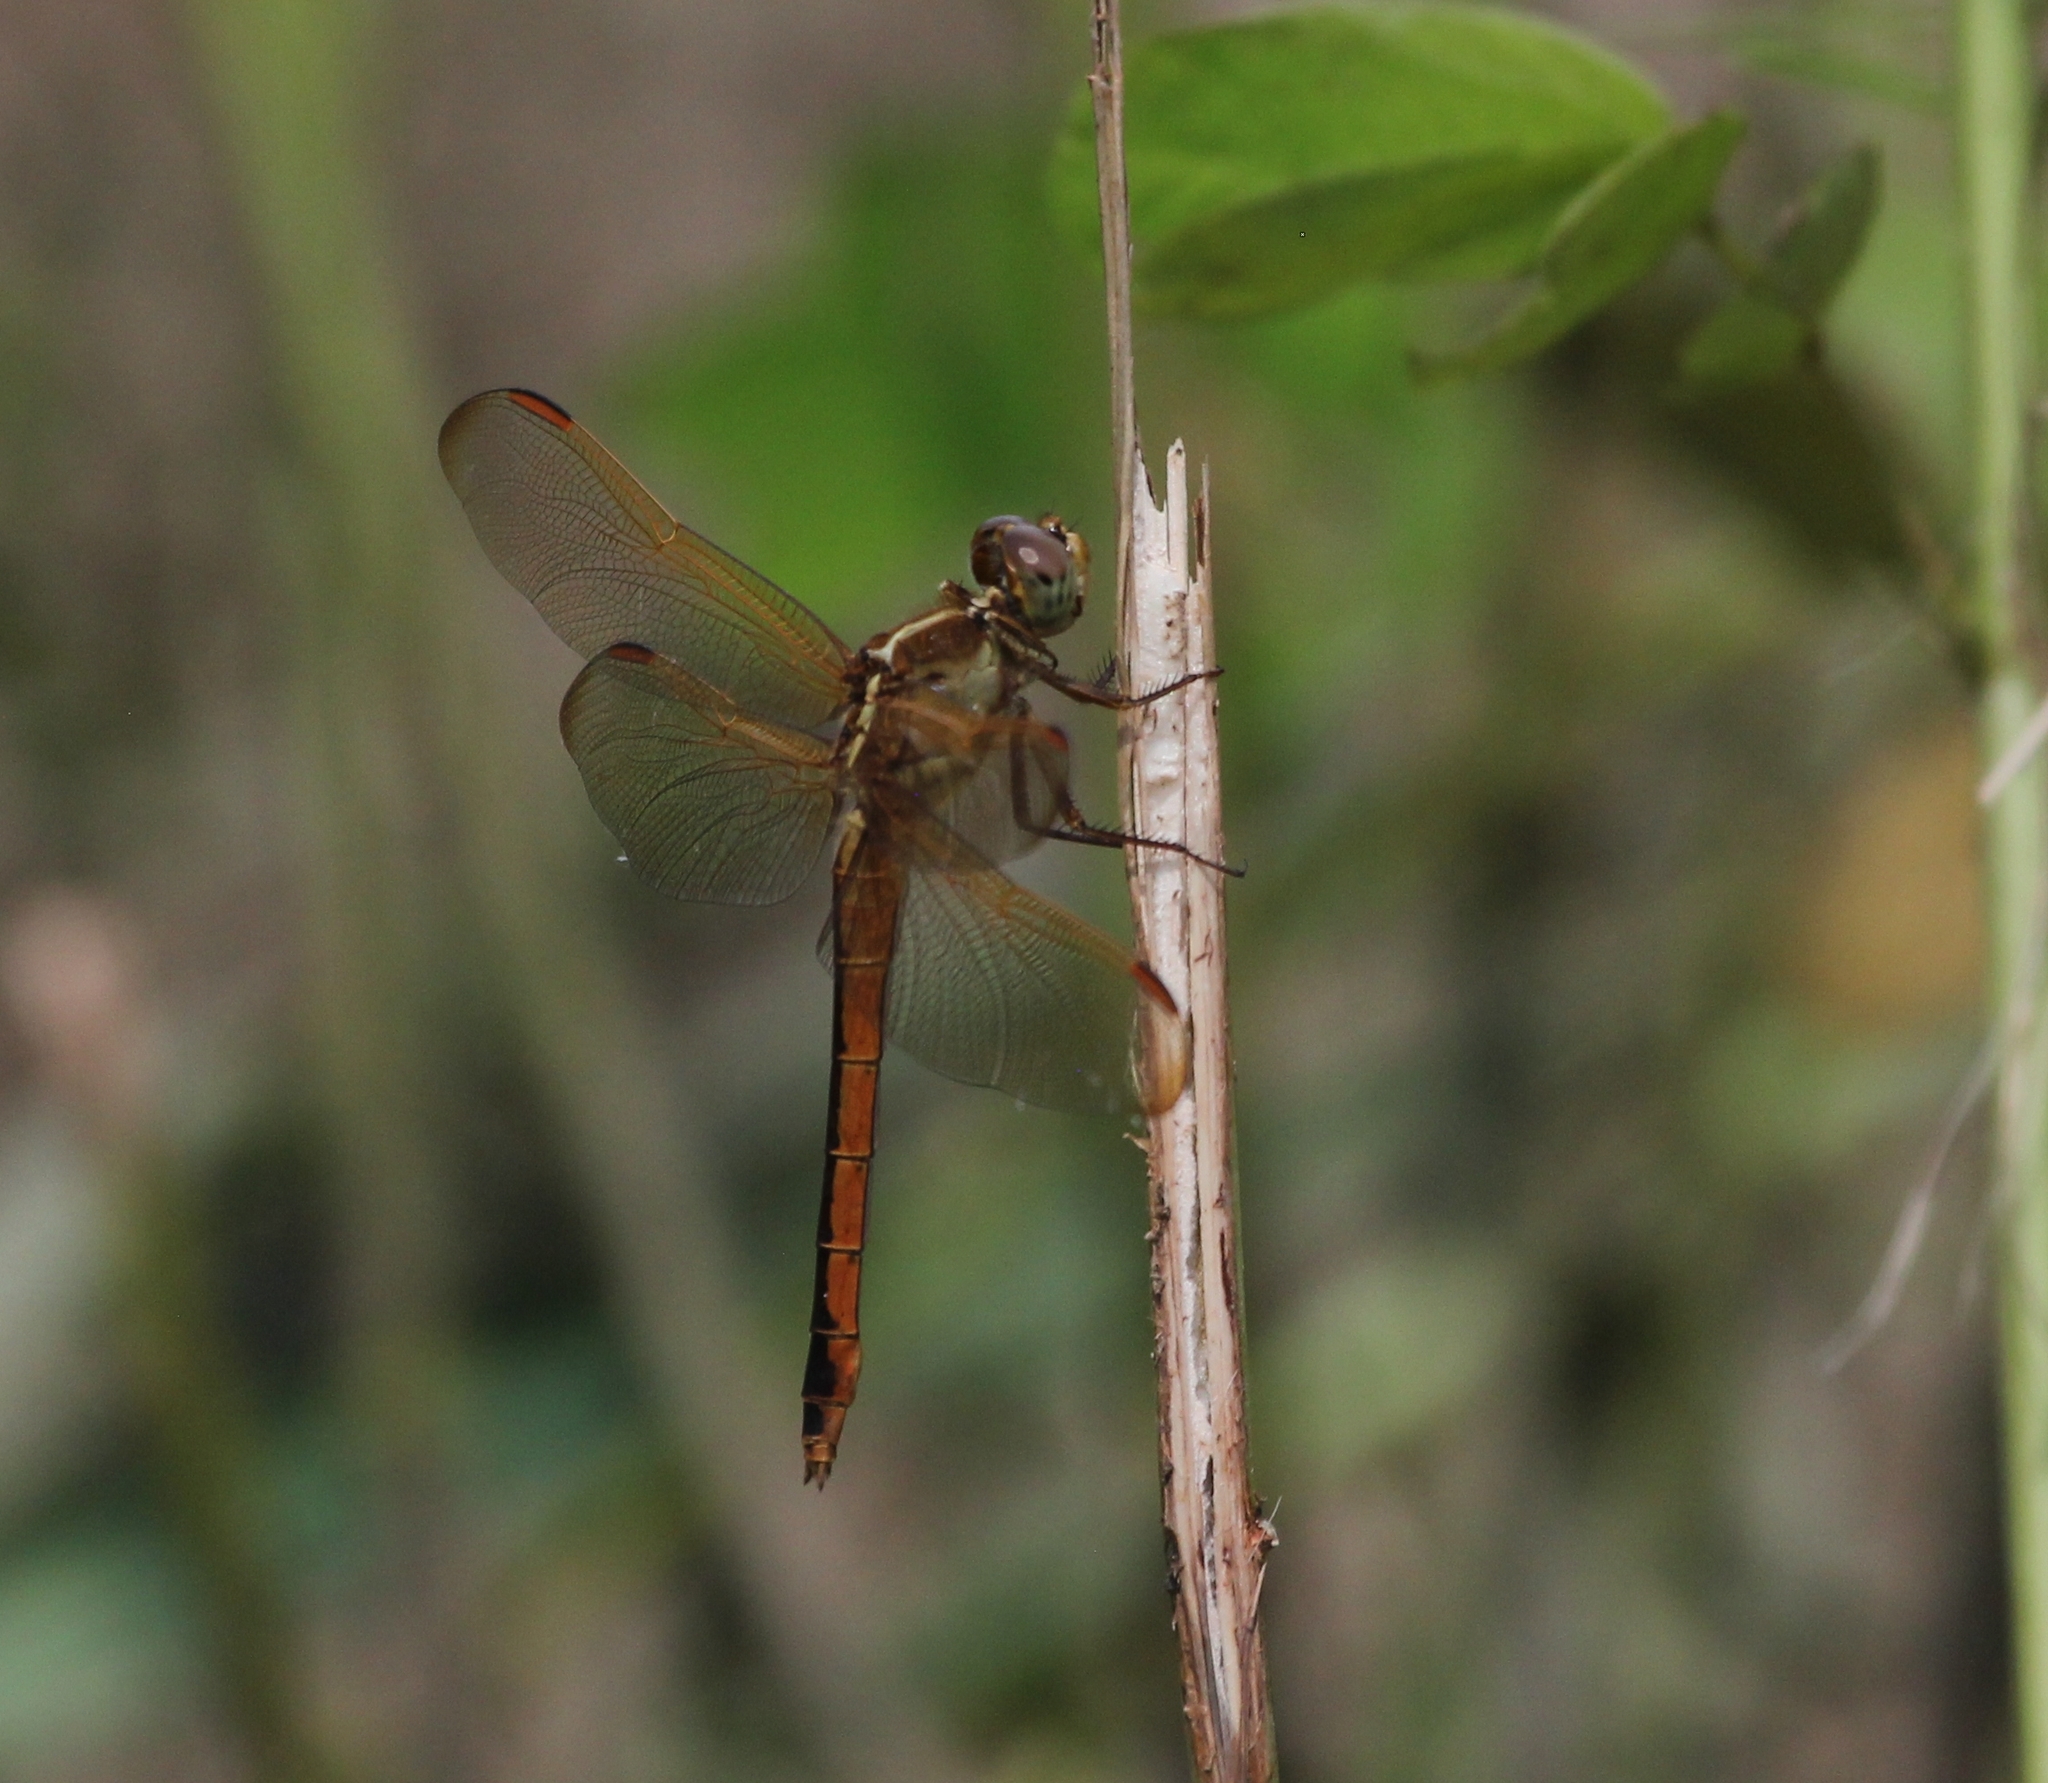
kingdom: Animalia
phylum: Arthropoda
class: Insecta
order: Odonata
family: Libellulidae
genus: Libellula
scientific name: Libellula needhami
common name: Needham's skimmer
